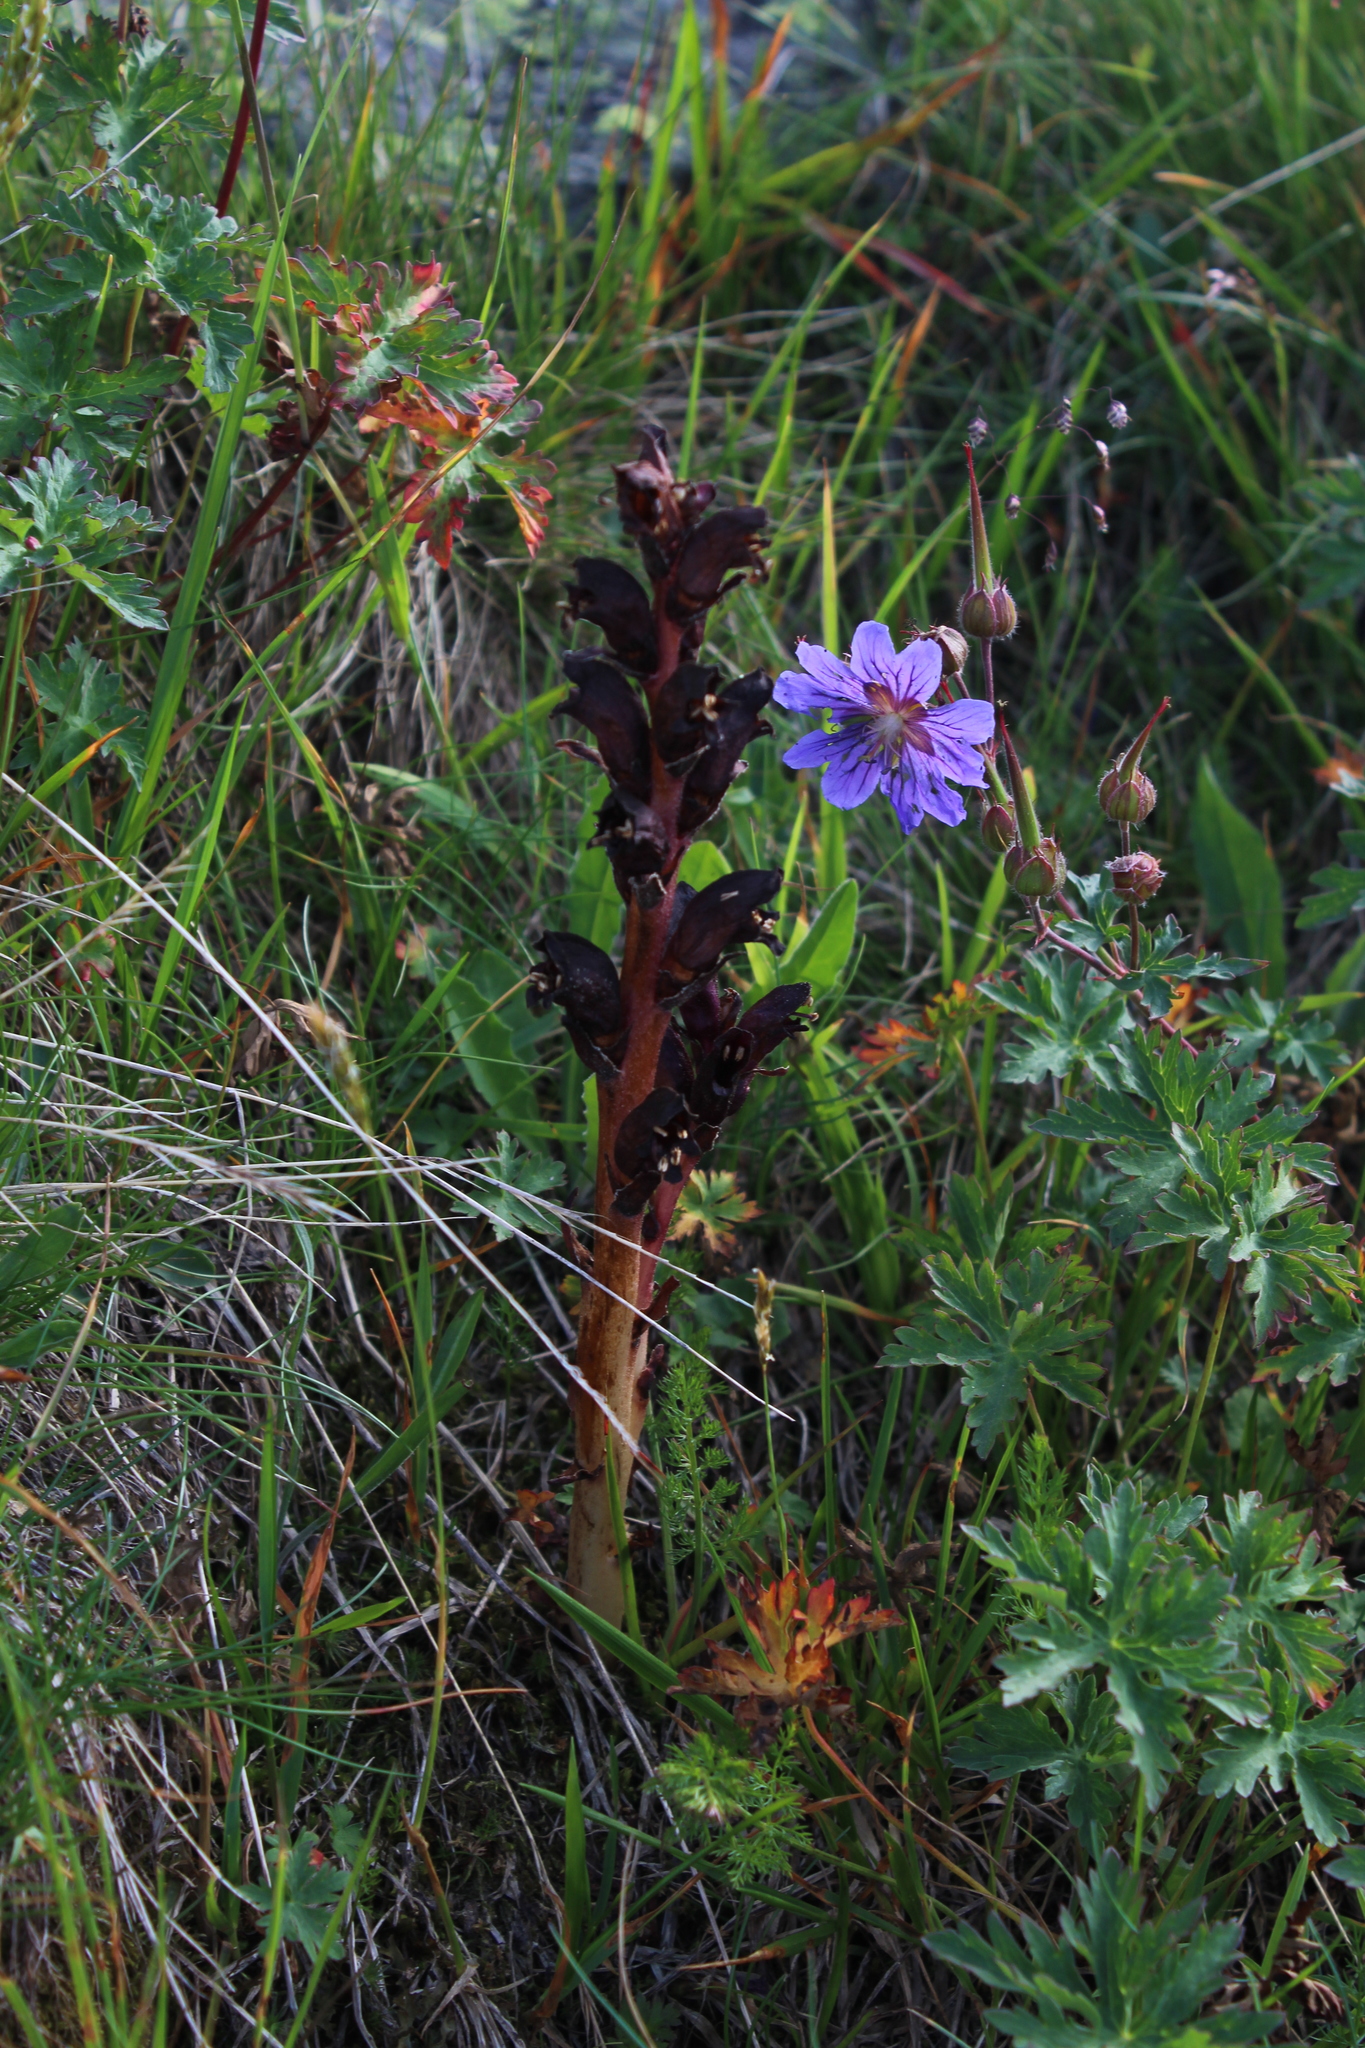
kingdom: Plantae
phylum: Tracheophyta
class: Magnoliopsida
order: Lamiales
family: Orobanchaceae
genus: Orobanche
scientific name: Orobanche gamosepala
